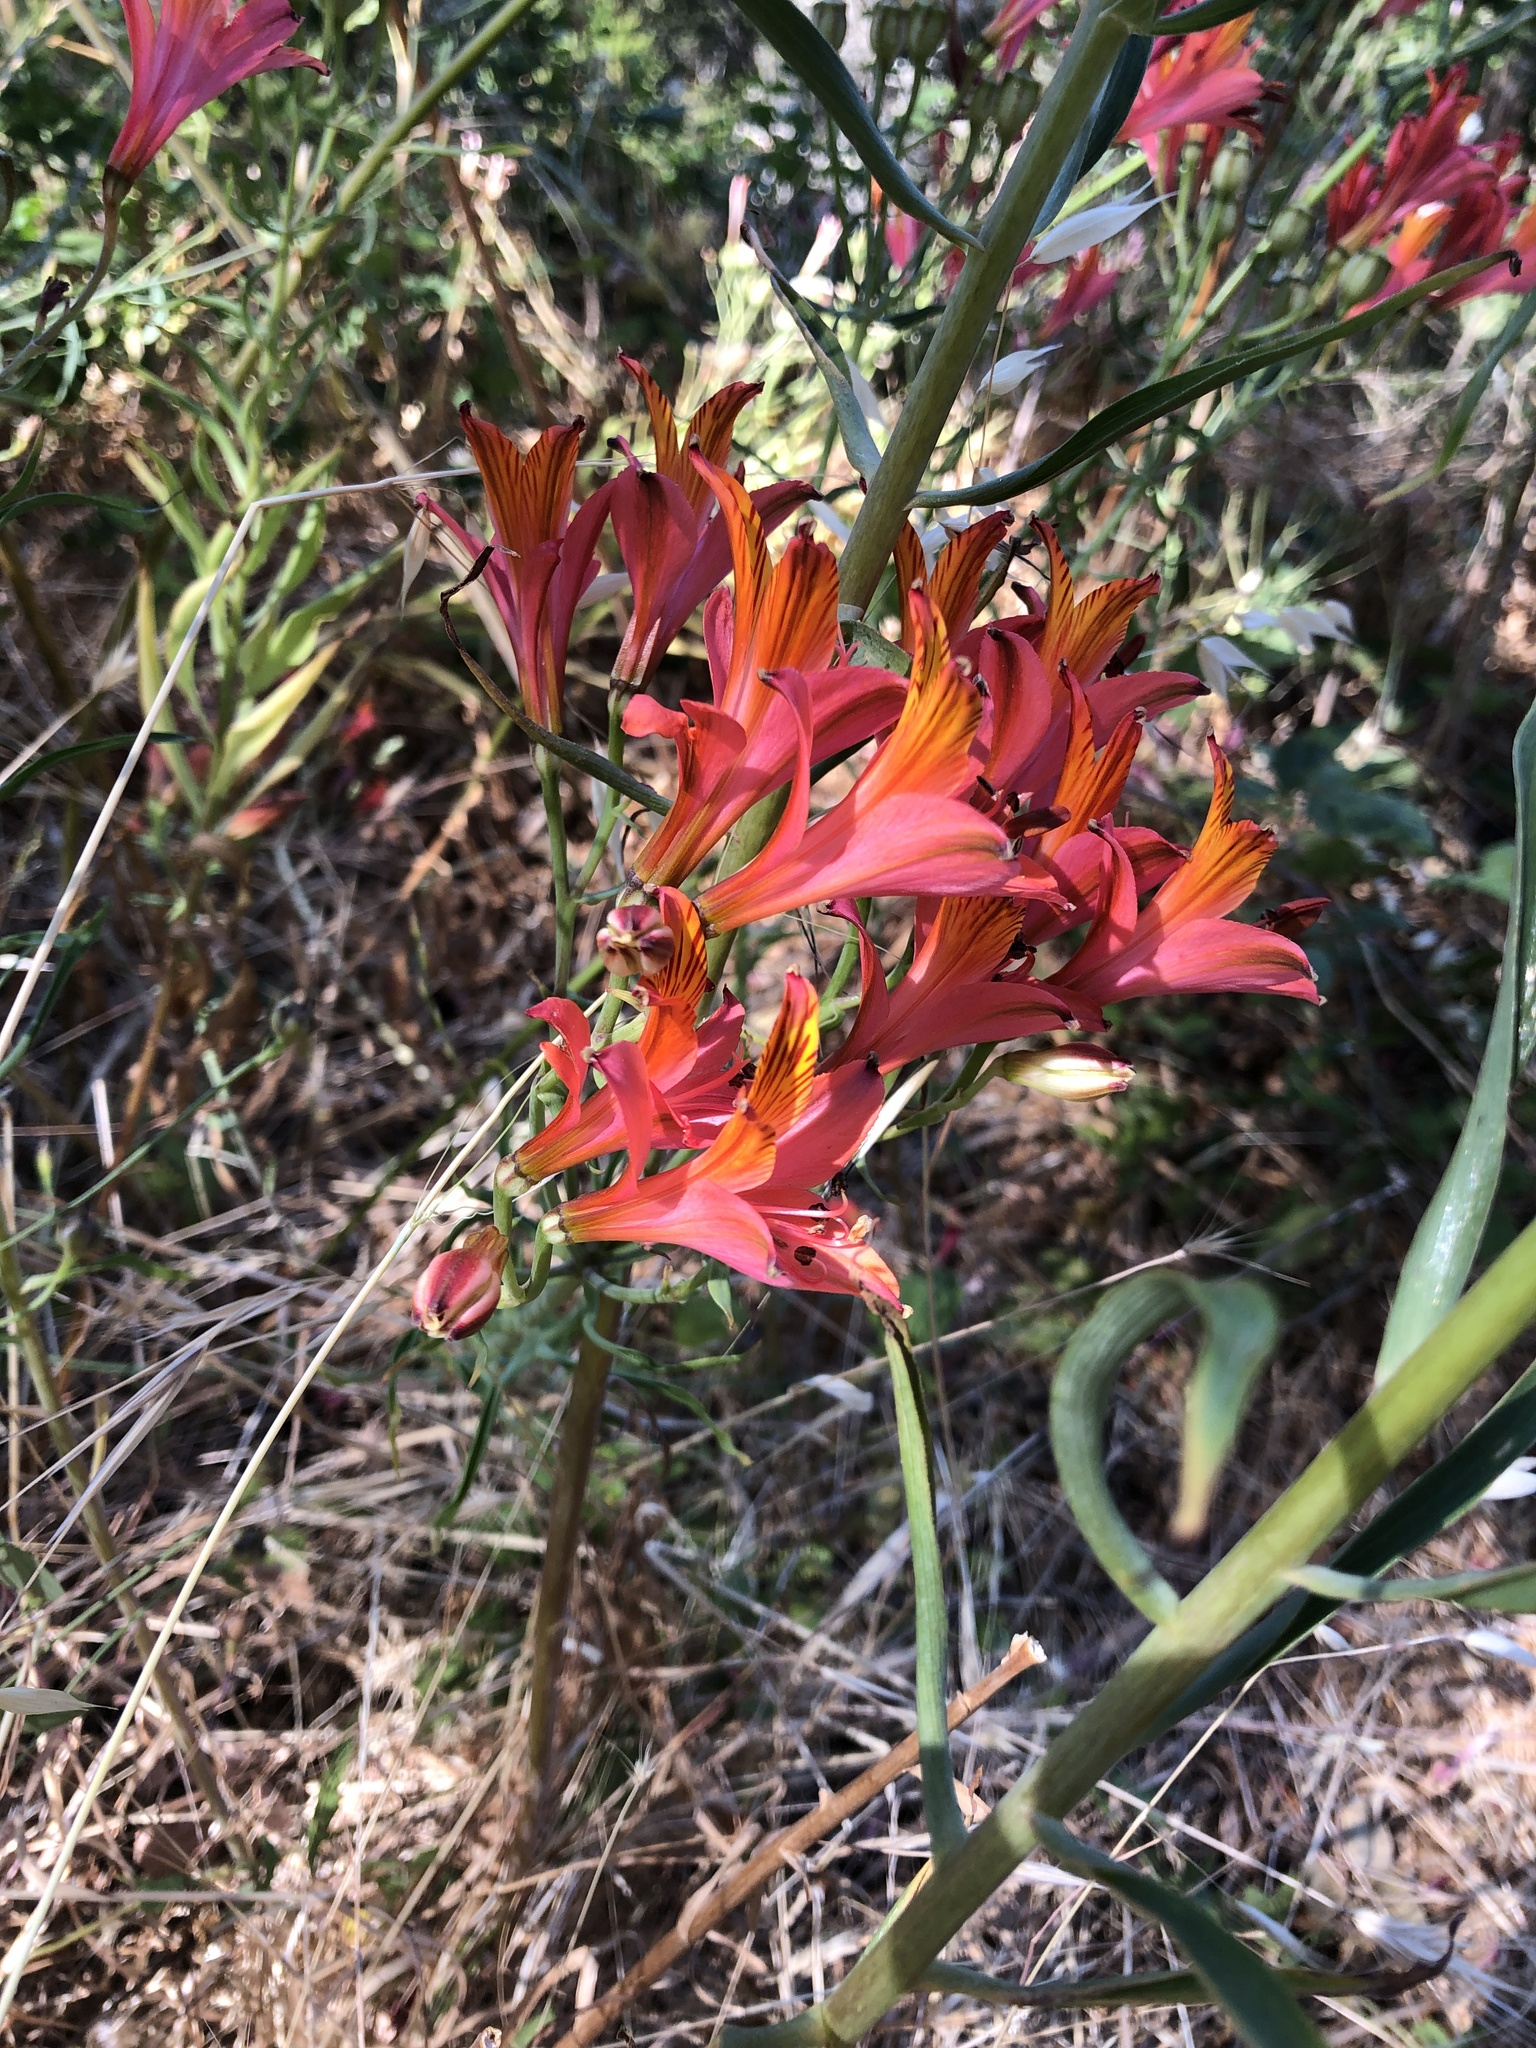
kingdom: Plantae
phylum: Tracheophyta
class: Liliopsida
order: Liliales
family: Alstroemeriaceae
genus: Alstroemeria
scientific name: Alstroemeria
